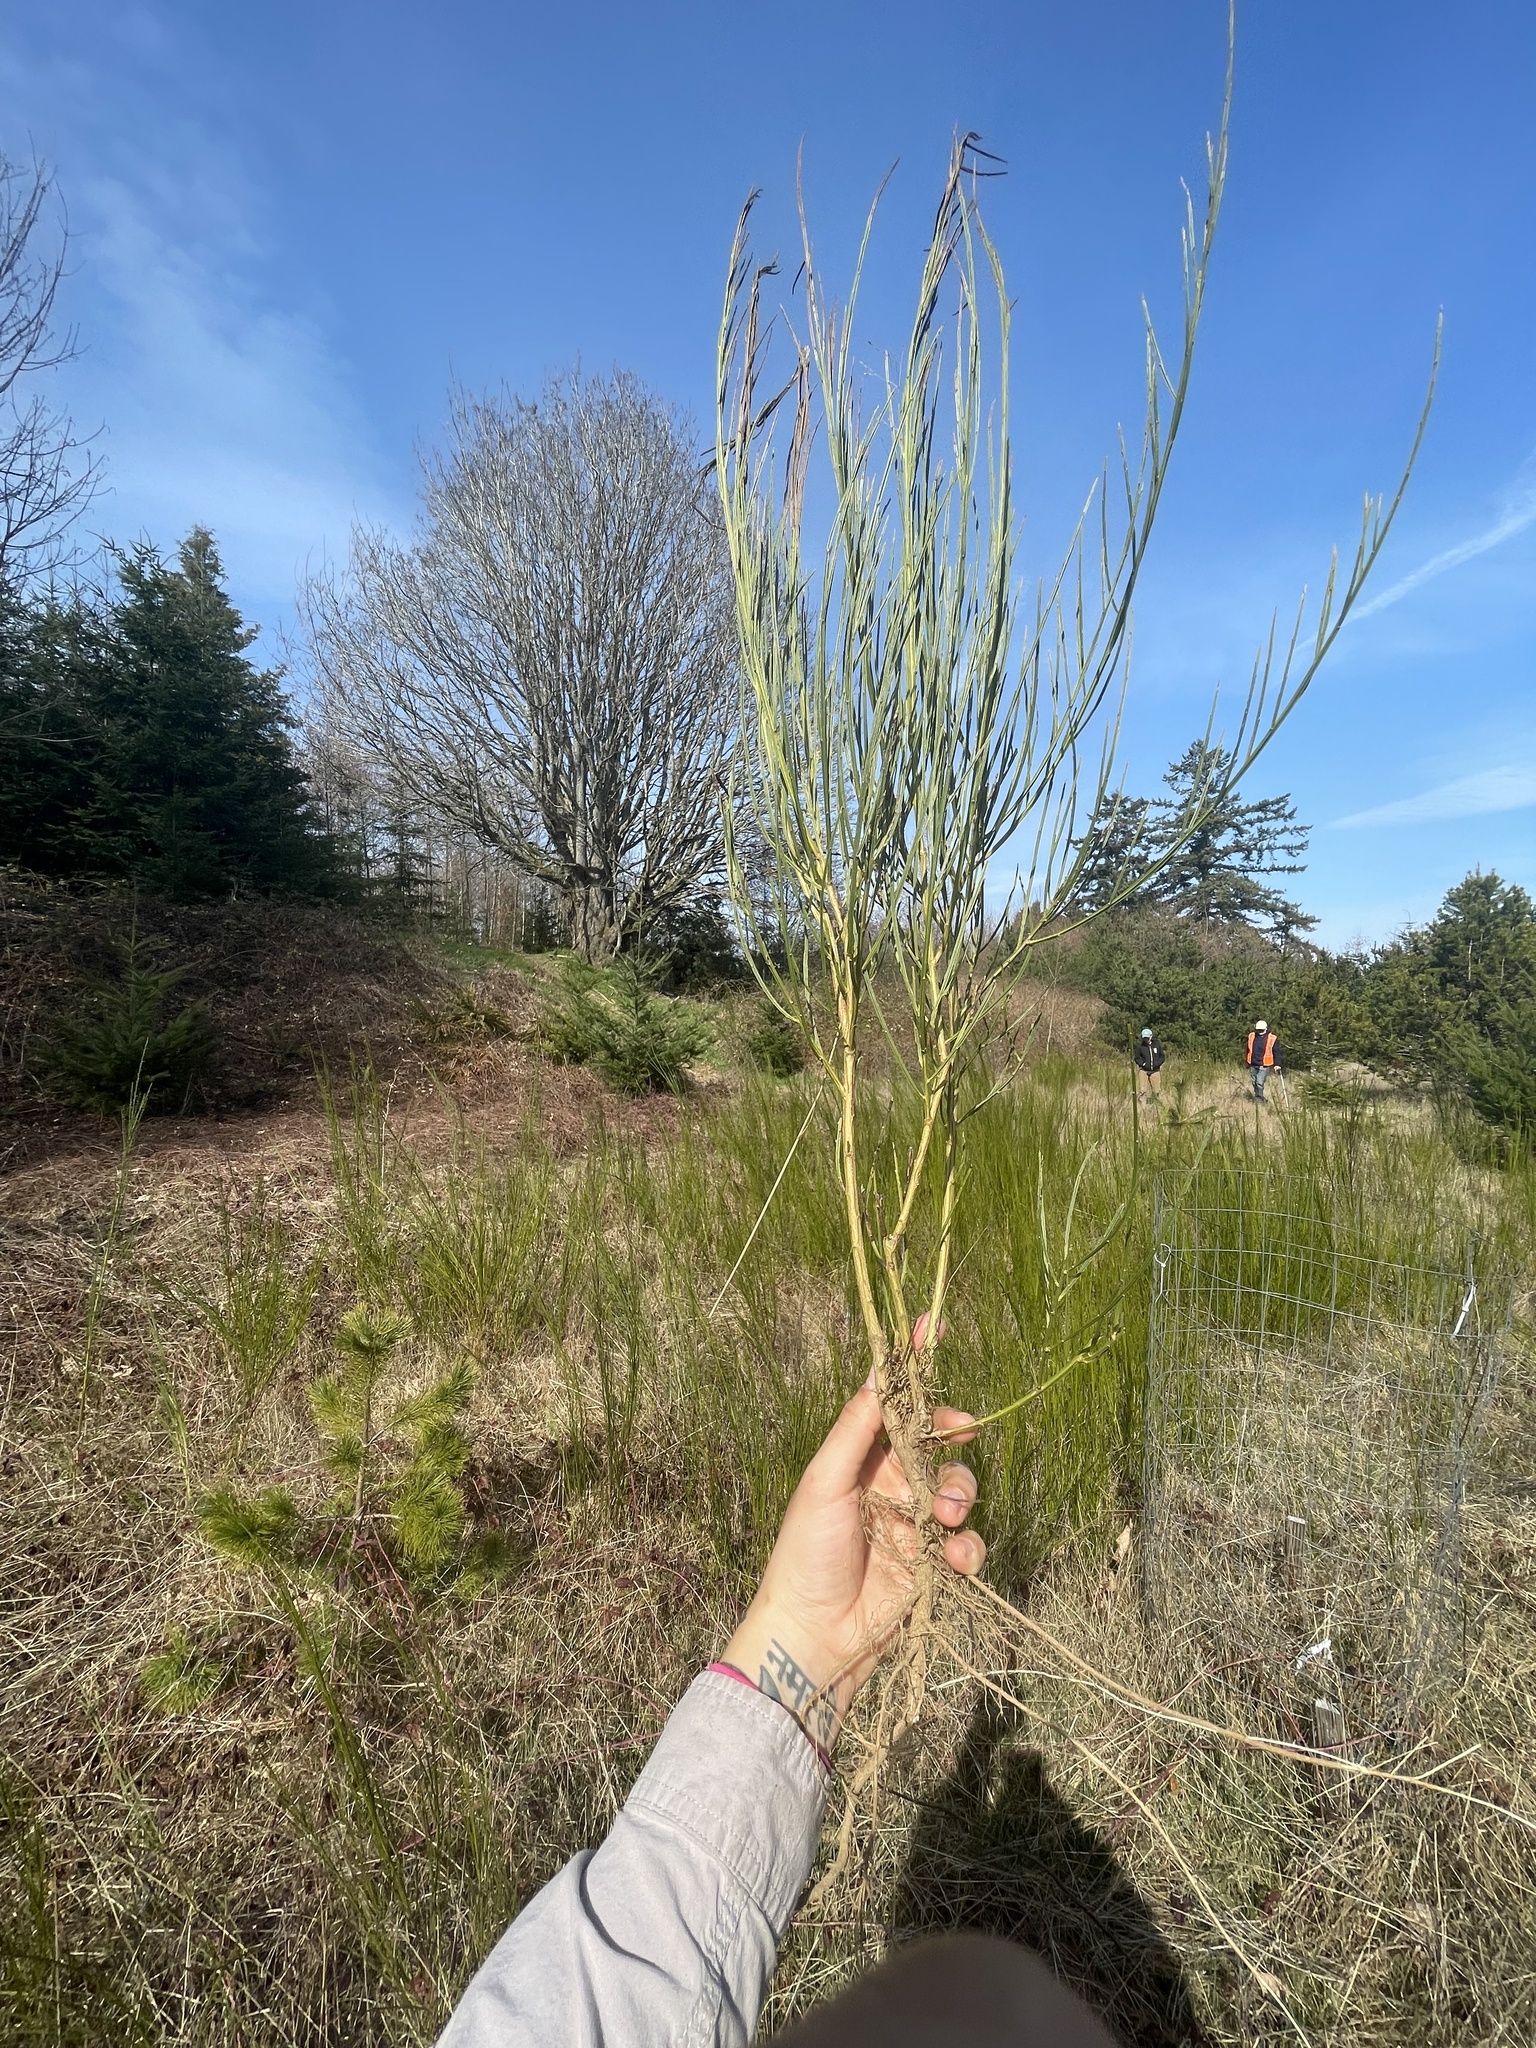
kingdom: Plantae
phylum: Tracheophyta
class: Magnoliopsida
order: Fabales
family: Fabaceae
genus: Cytisus
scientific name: Cytisus scoparius
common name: Scotch broom
